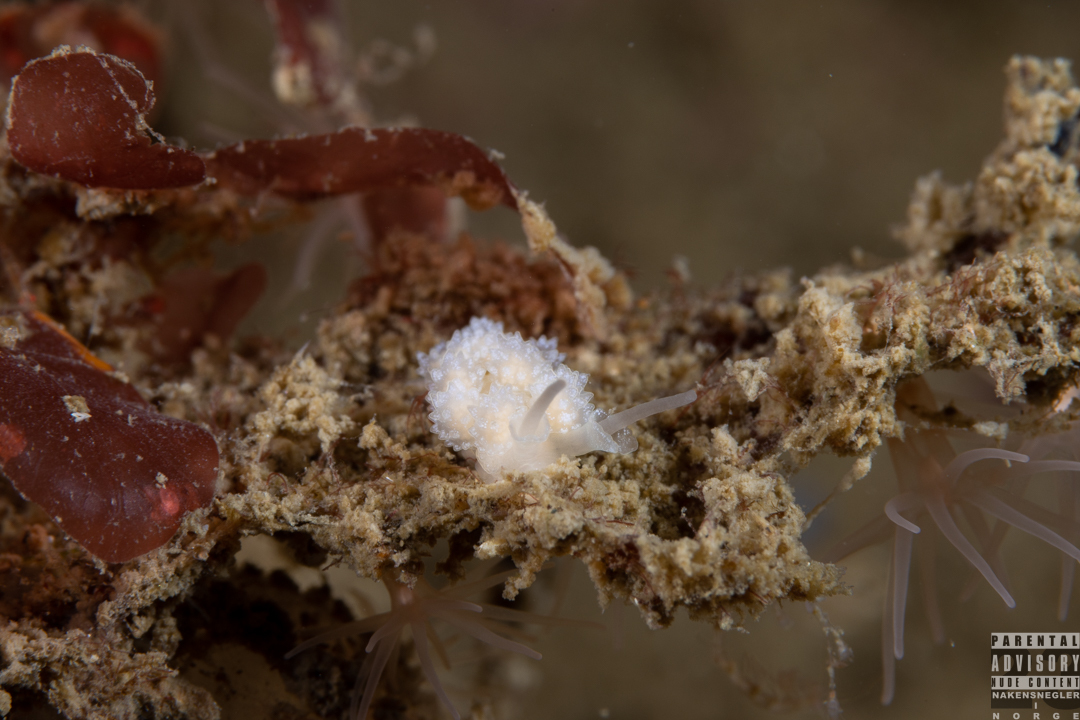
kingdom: Animalia
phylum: Mollusca
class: Gastropoda
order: Nudibranchia
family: Dotidae
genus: Doto
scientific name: Doto fragilis
